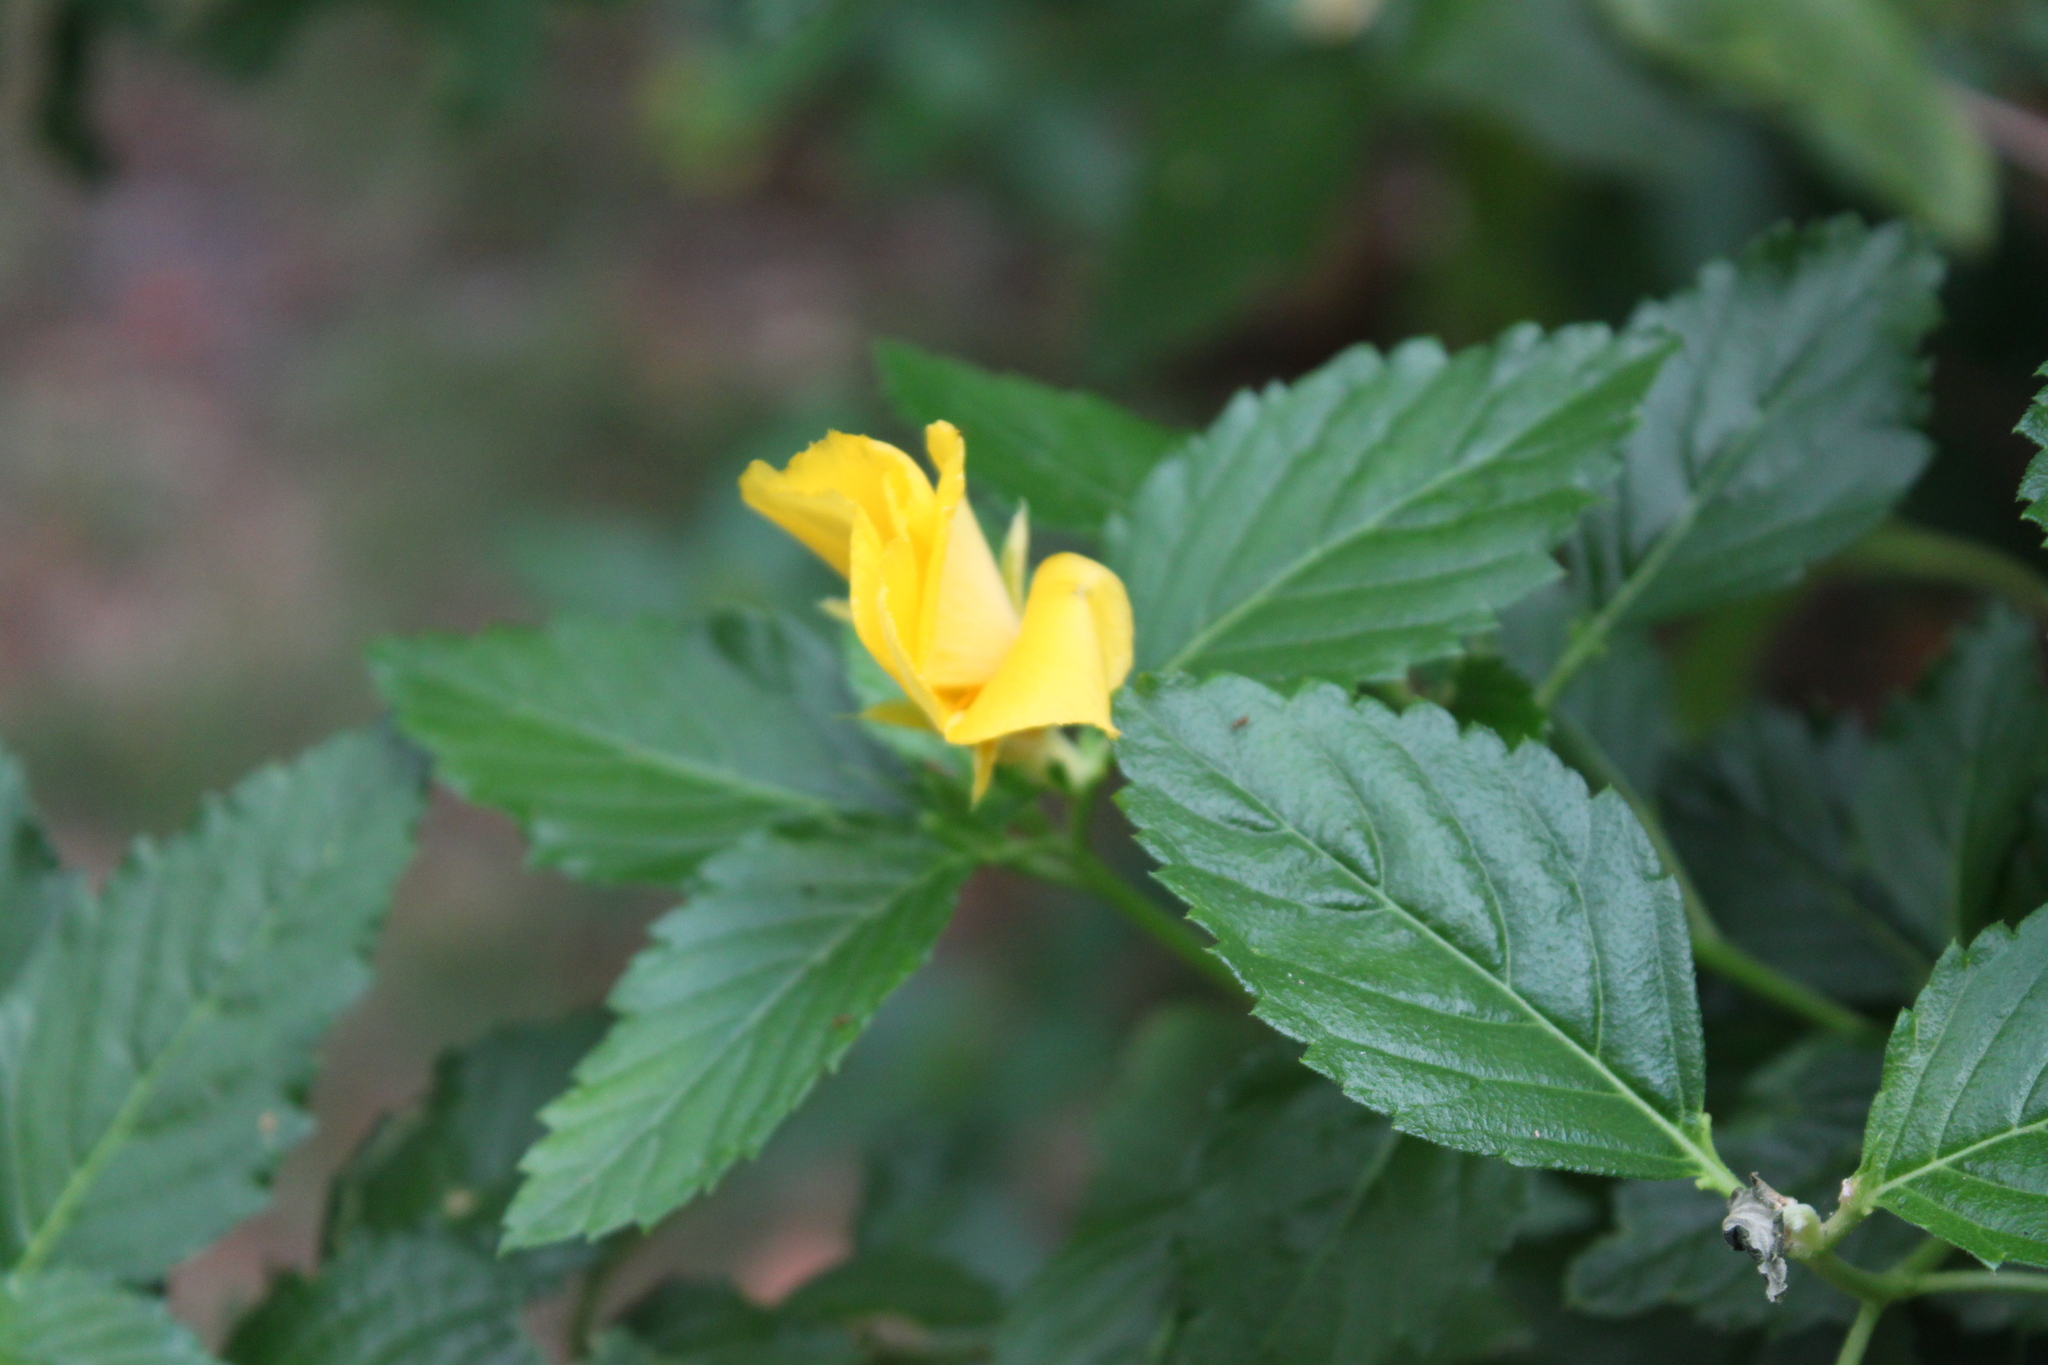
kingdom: Plantae
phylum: Tracheophyta
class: Magnoliopsida
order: Malpighiales
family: Turneraceae
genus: Turnera
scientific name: Turnera ulmifolia
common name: Ramgoat dashalong
